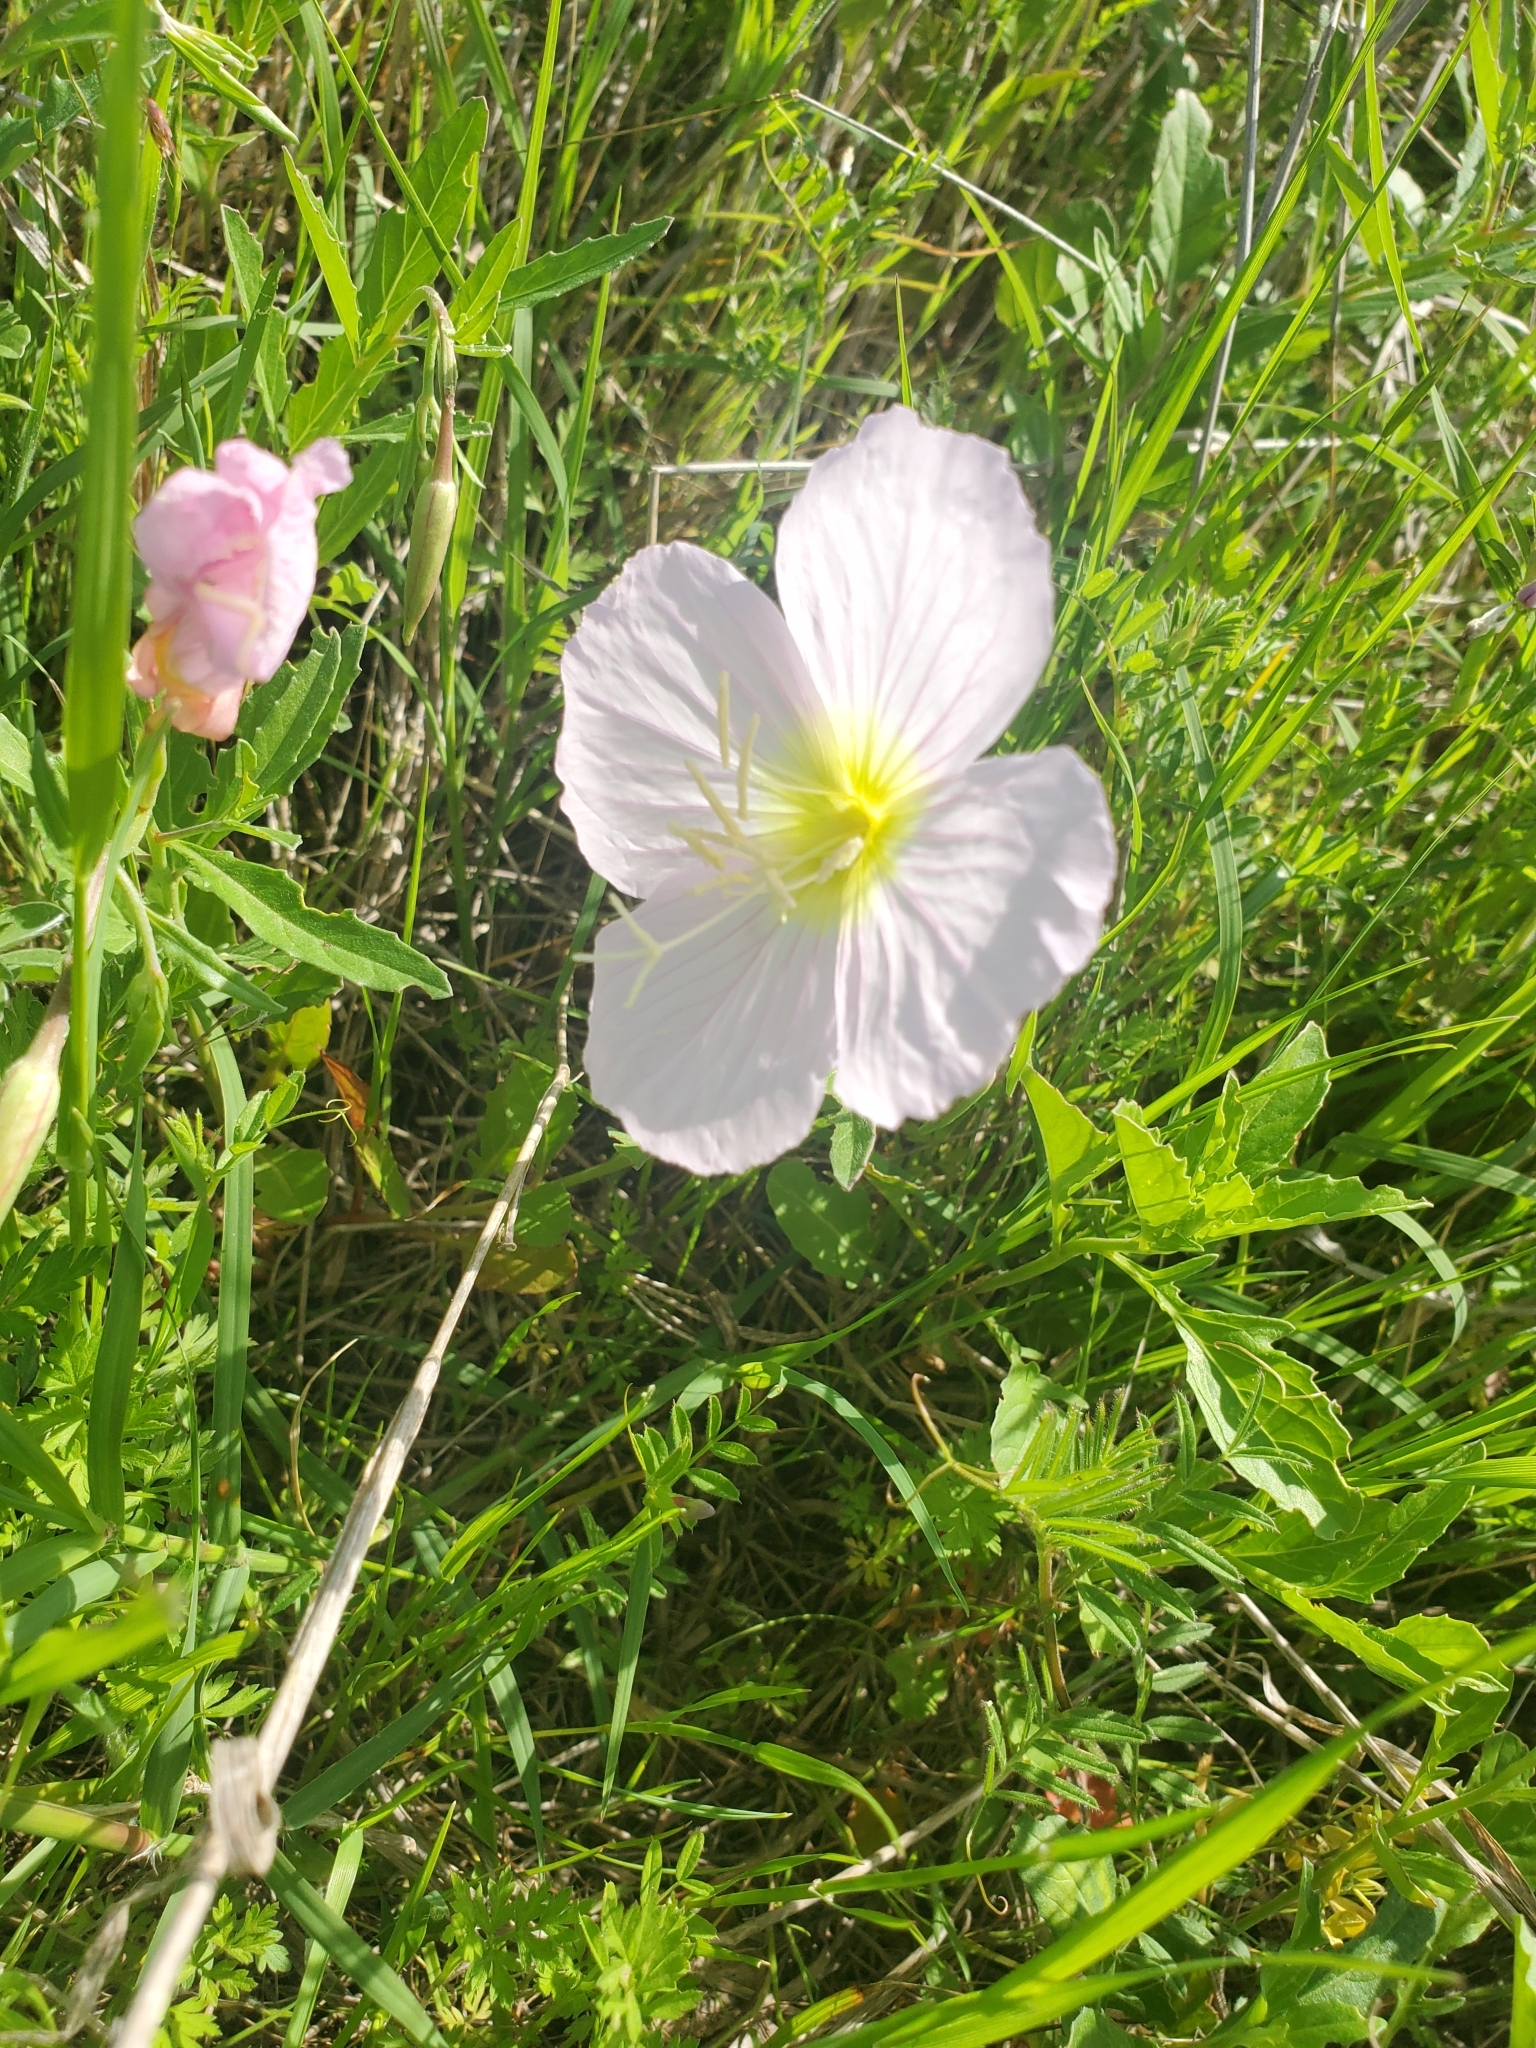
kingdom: Plantae
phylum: Tracheophyta
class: Magnoliopsida
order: Myrtales
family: Onagraceae
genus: Oenothera
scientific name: Oenothera speciosa
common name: White evening-primrose
